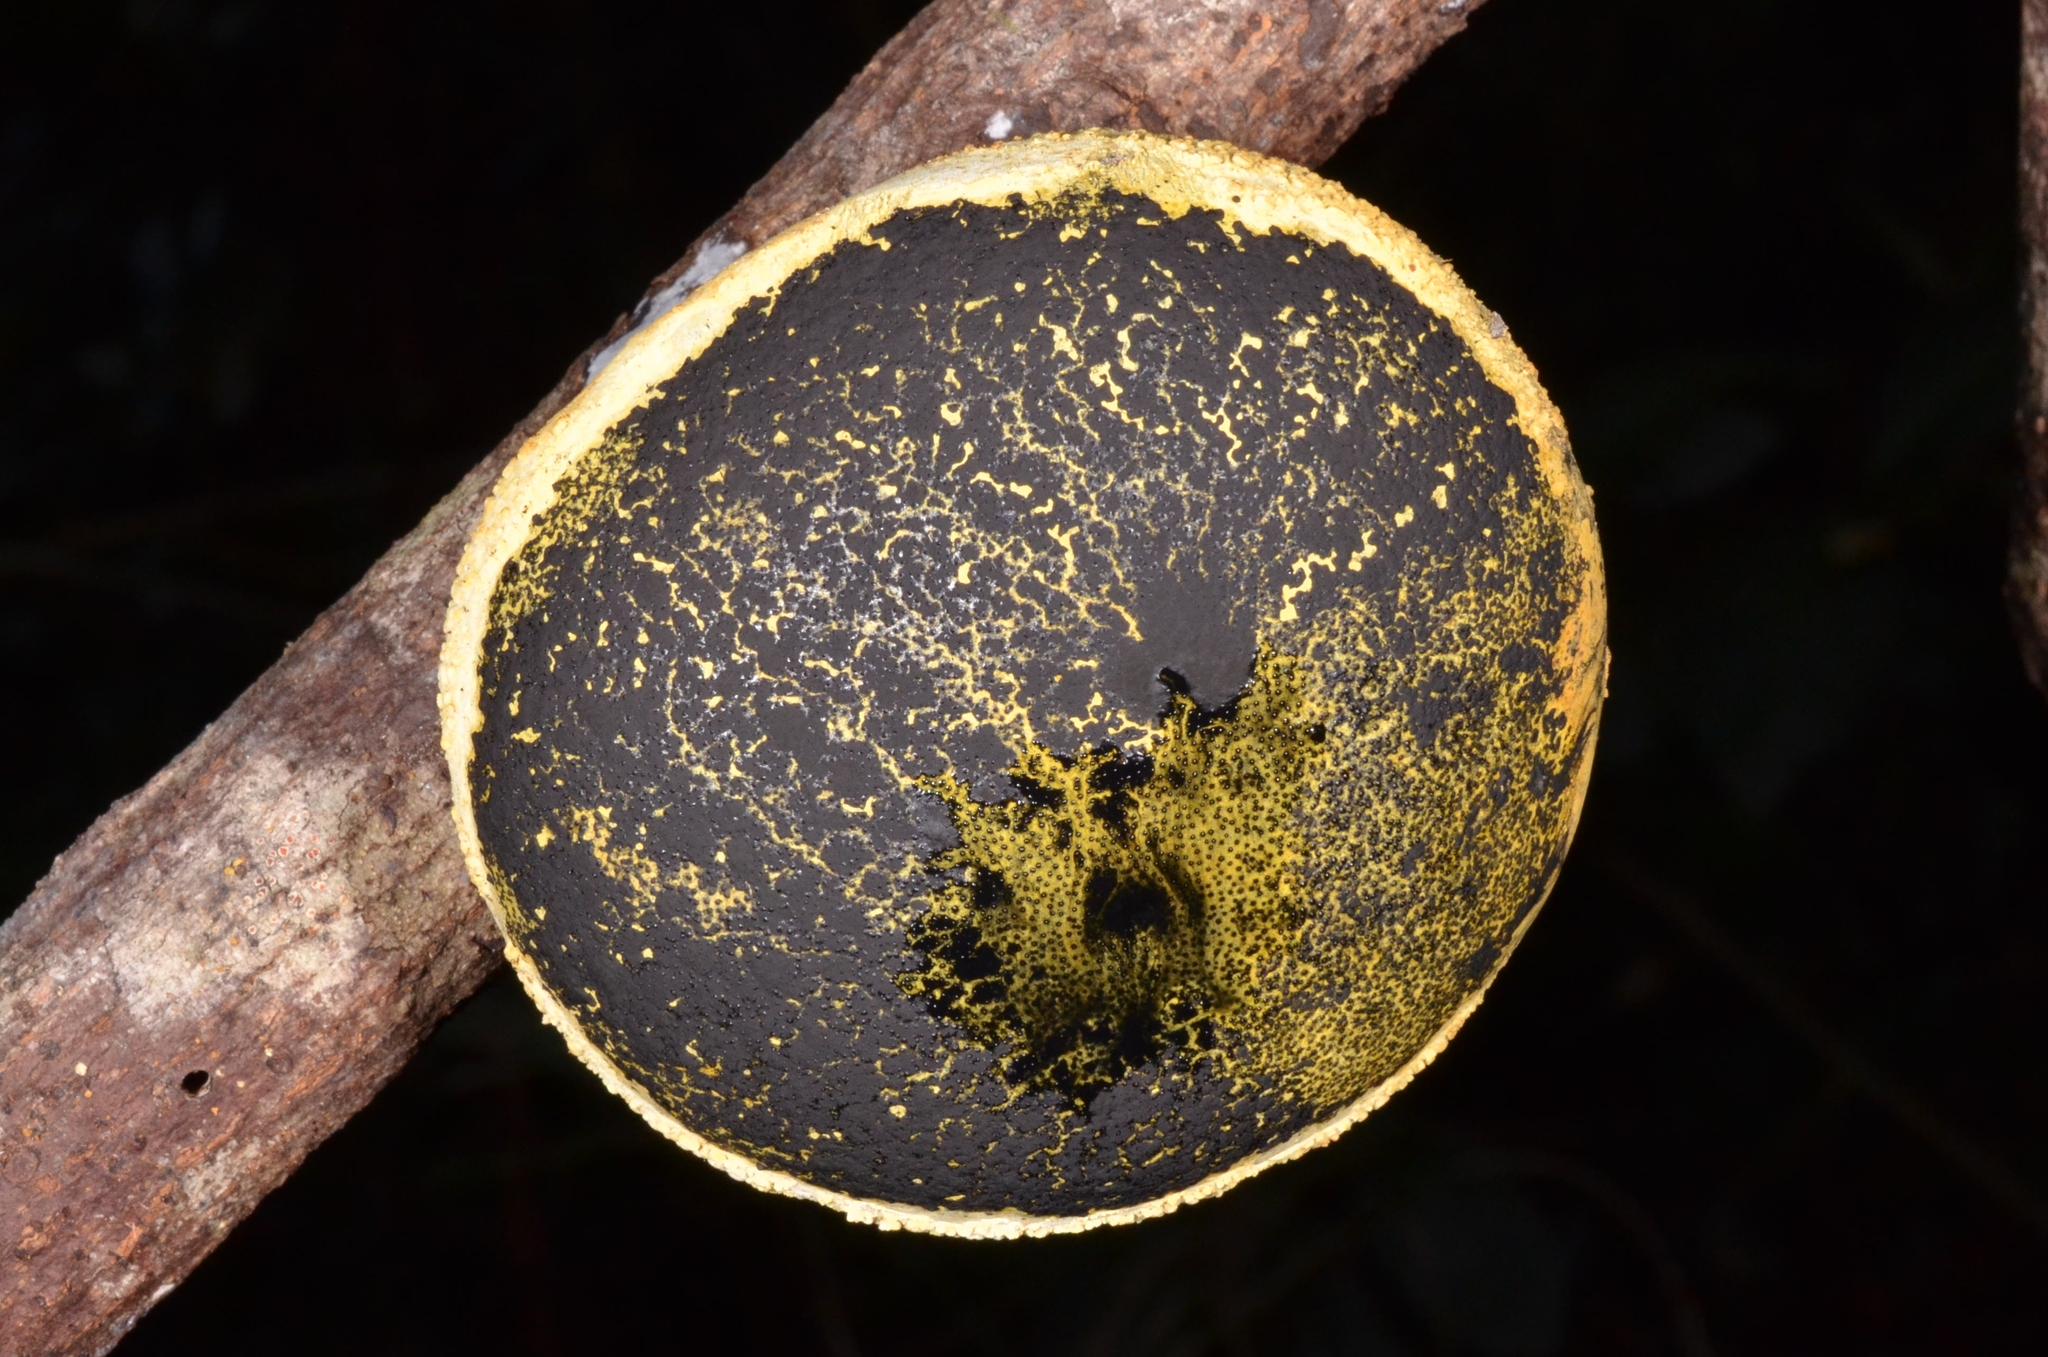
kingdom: Fungi
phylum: Ascomycota
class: Sordariomycetes
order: Xylariales
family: Xylariaceae
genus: Xylaria
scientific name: Xylaria compuncta
